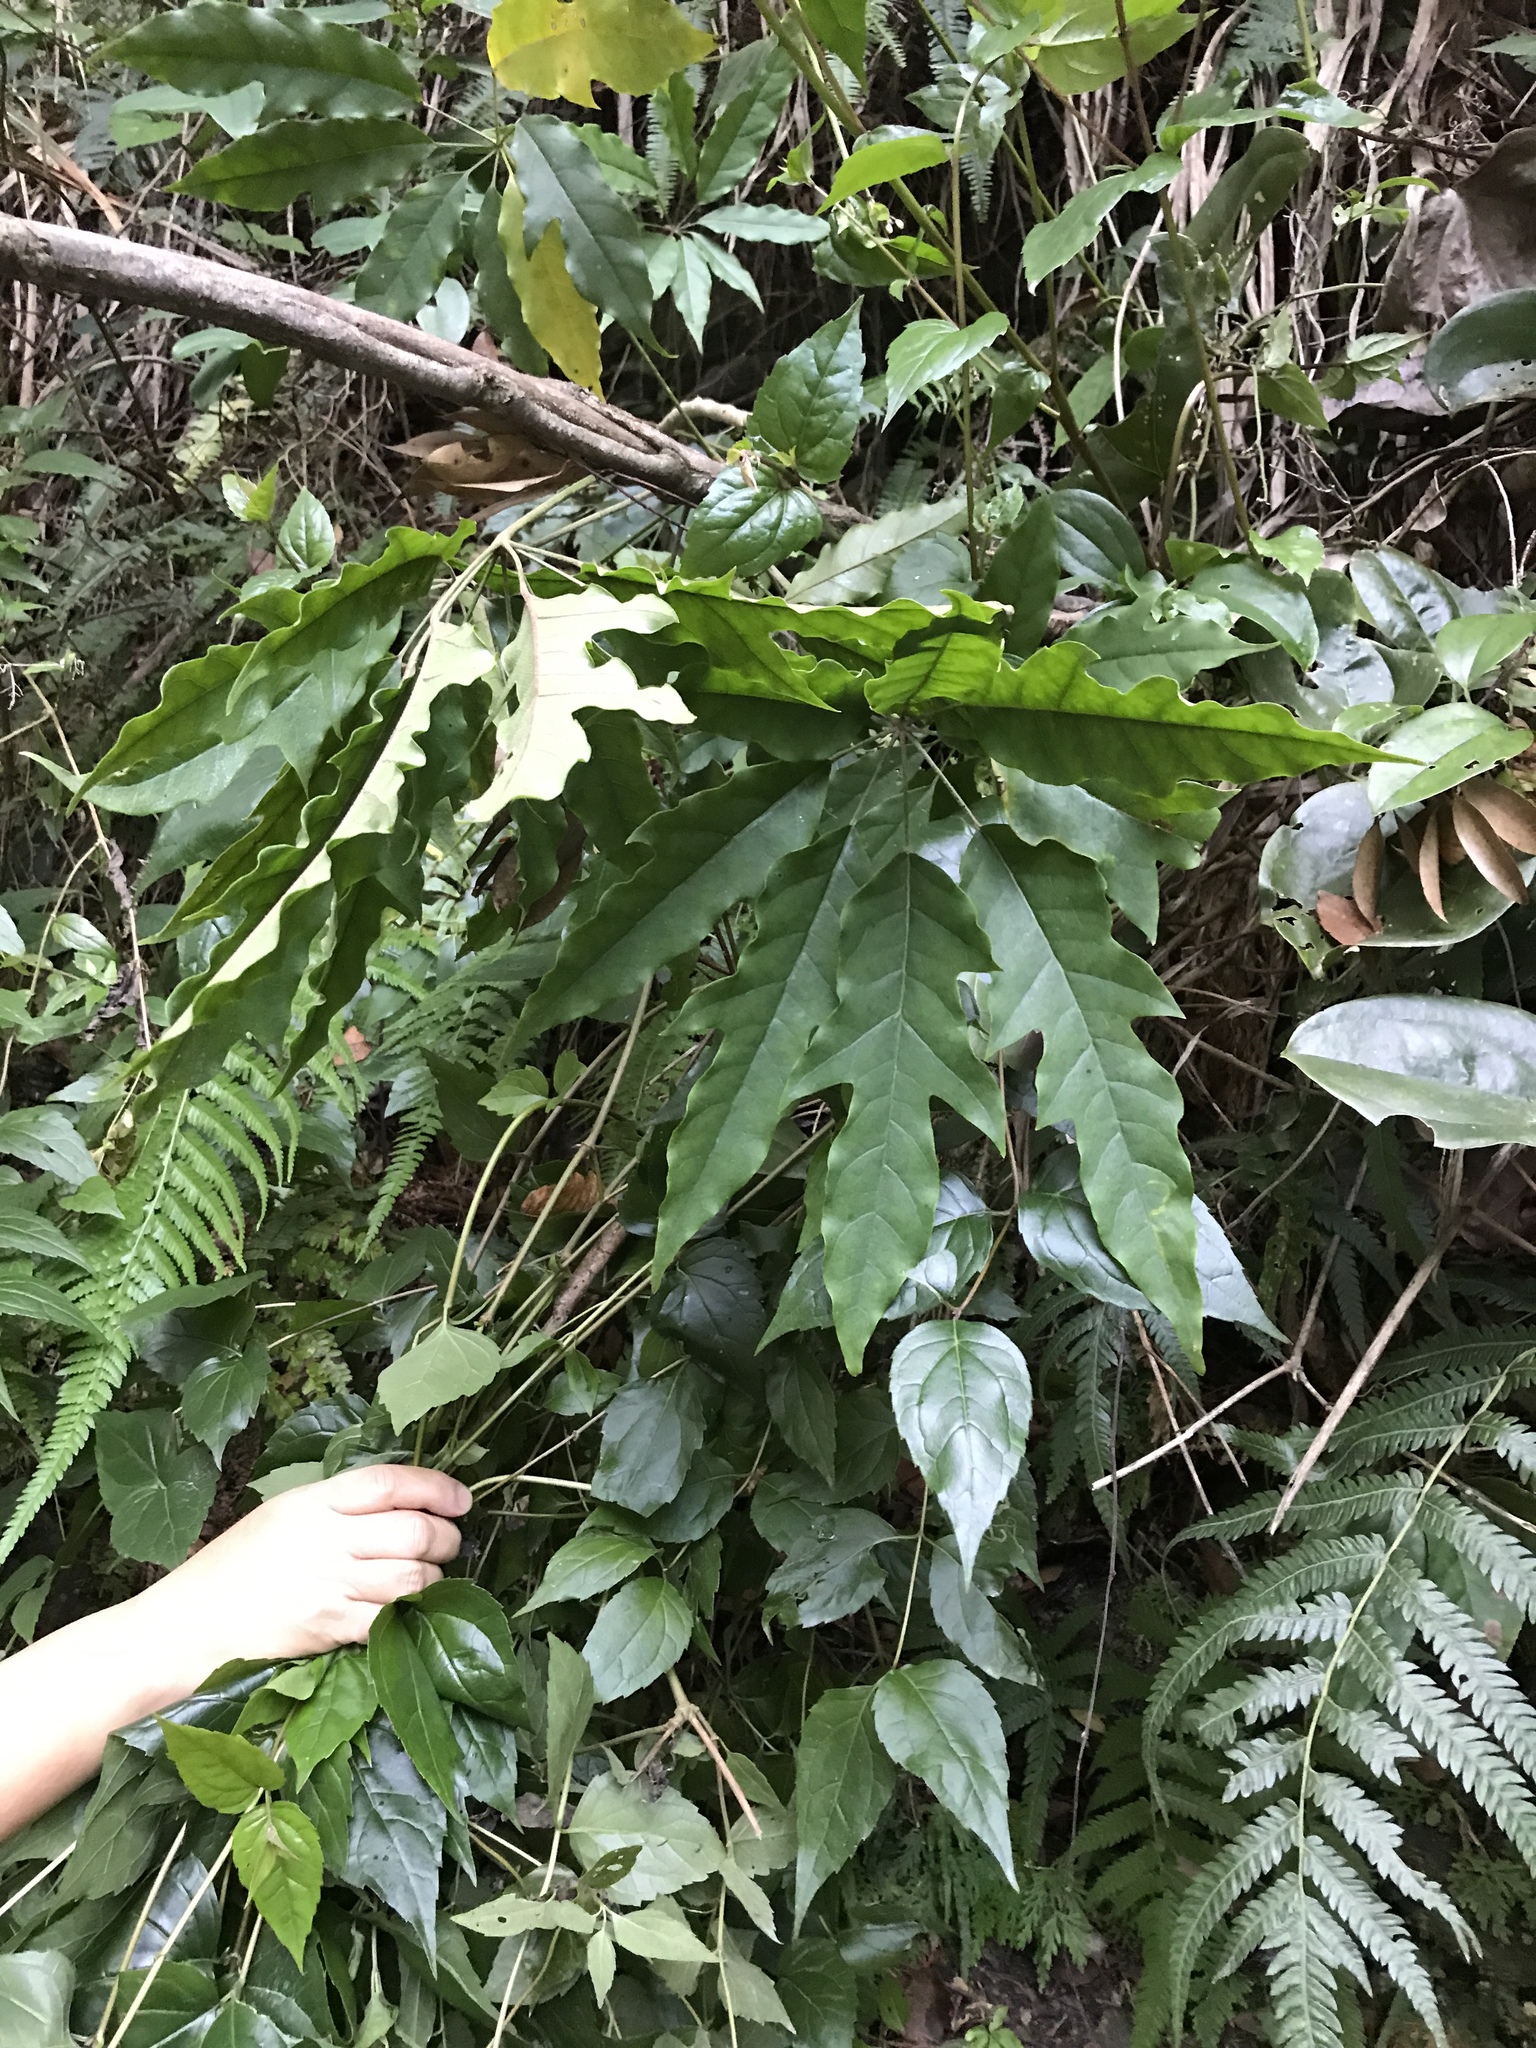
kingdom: Plantae
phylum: Tracheophyta
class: Magnoliopsida
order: Apiales
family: Araliaceae
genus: Heptapleurum
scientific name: Heptapleurum heptaphyllum
